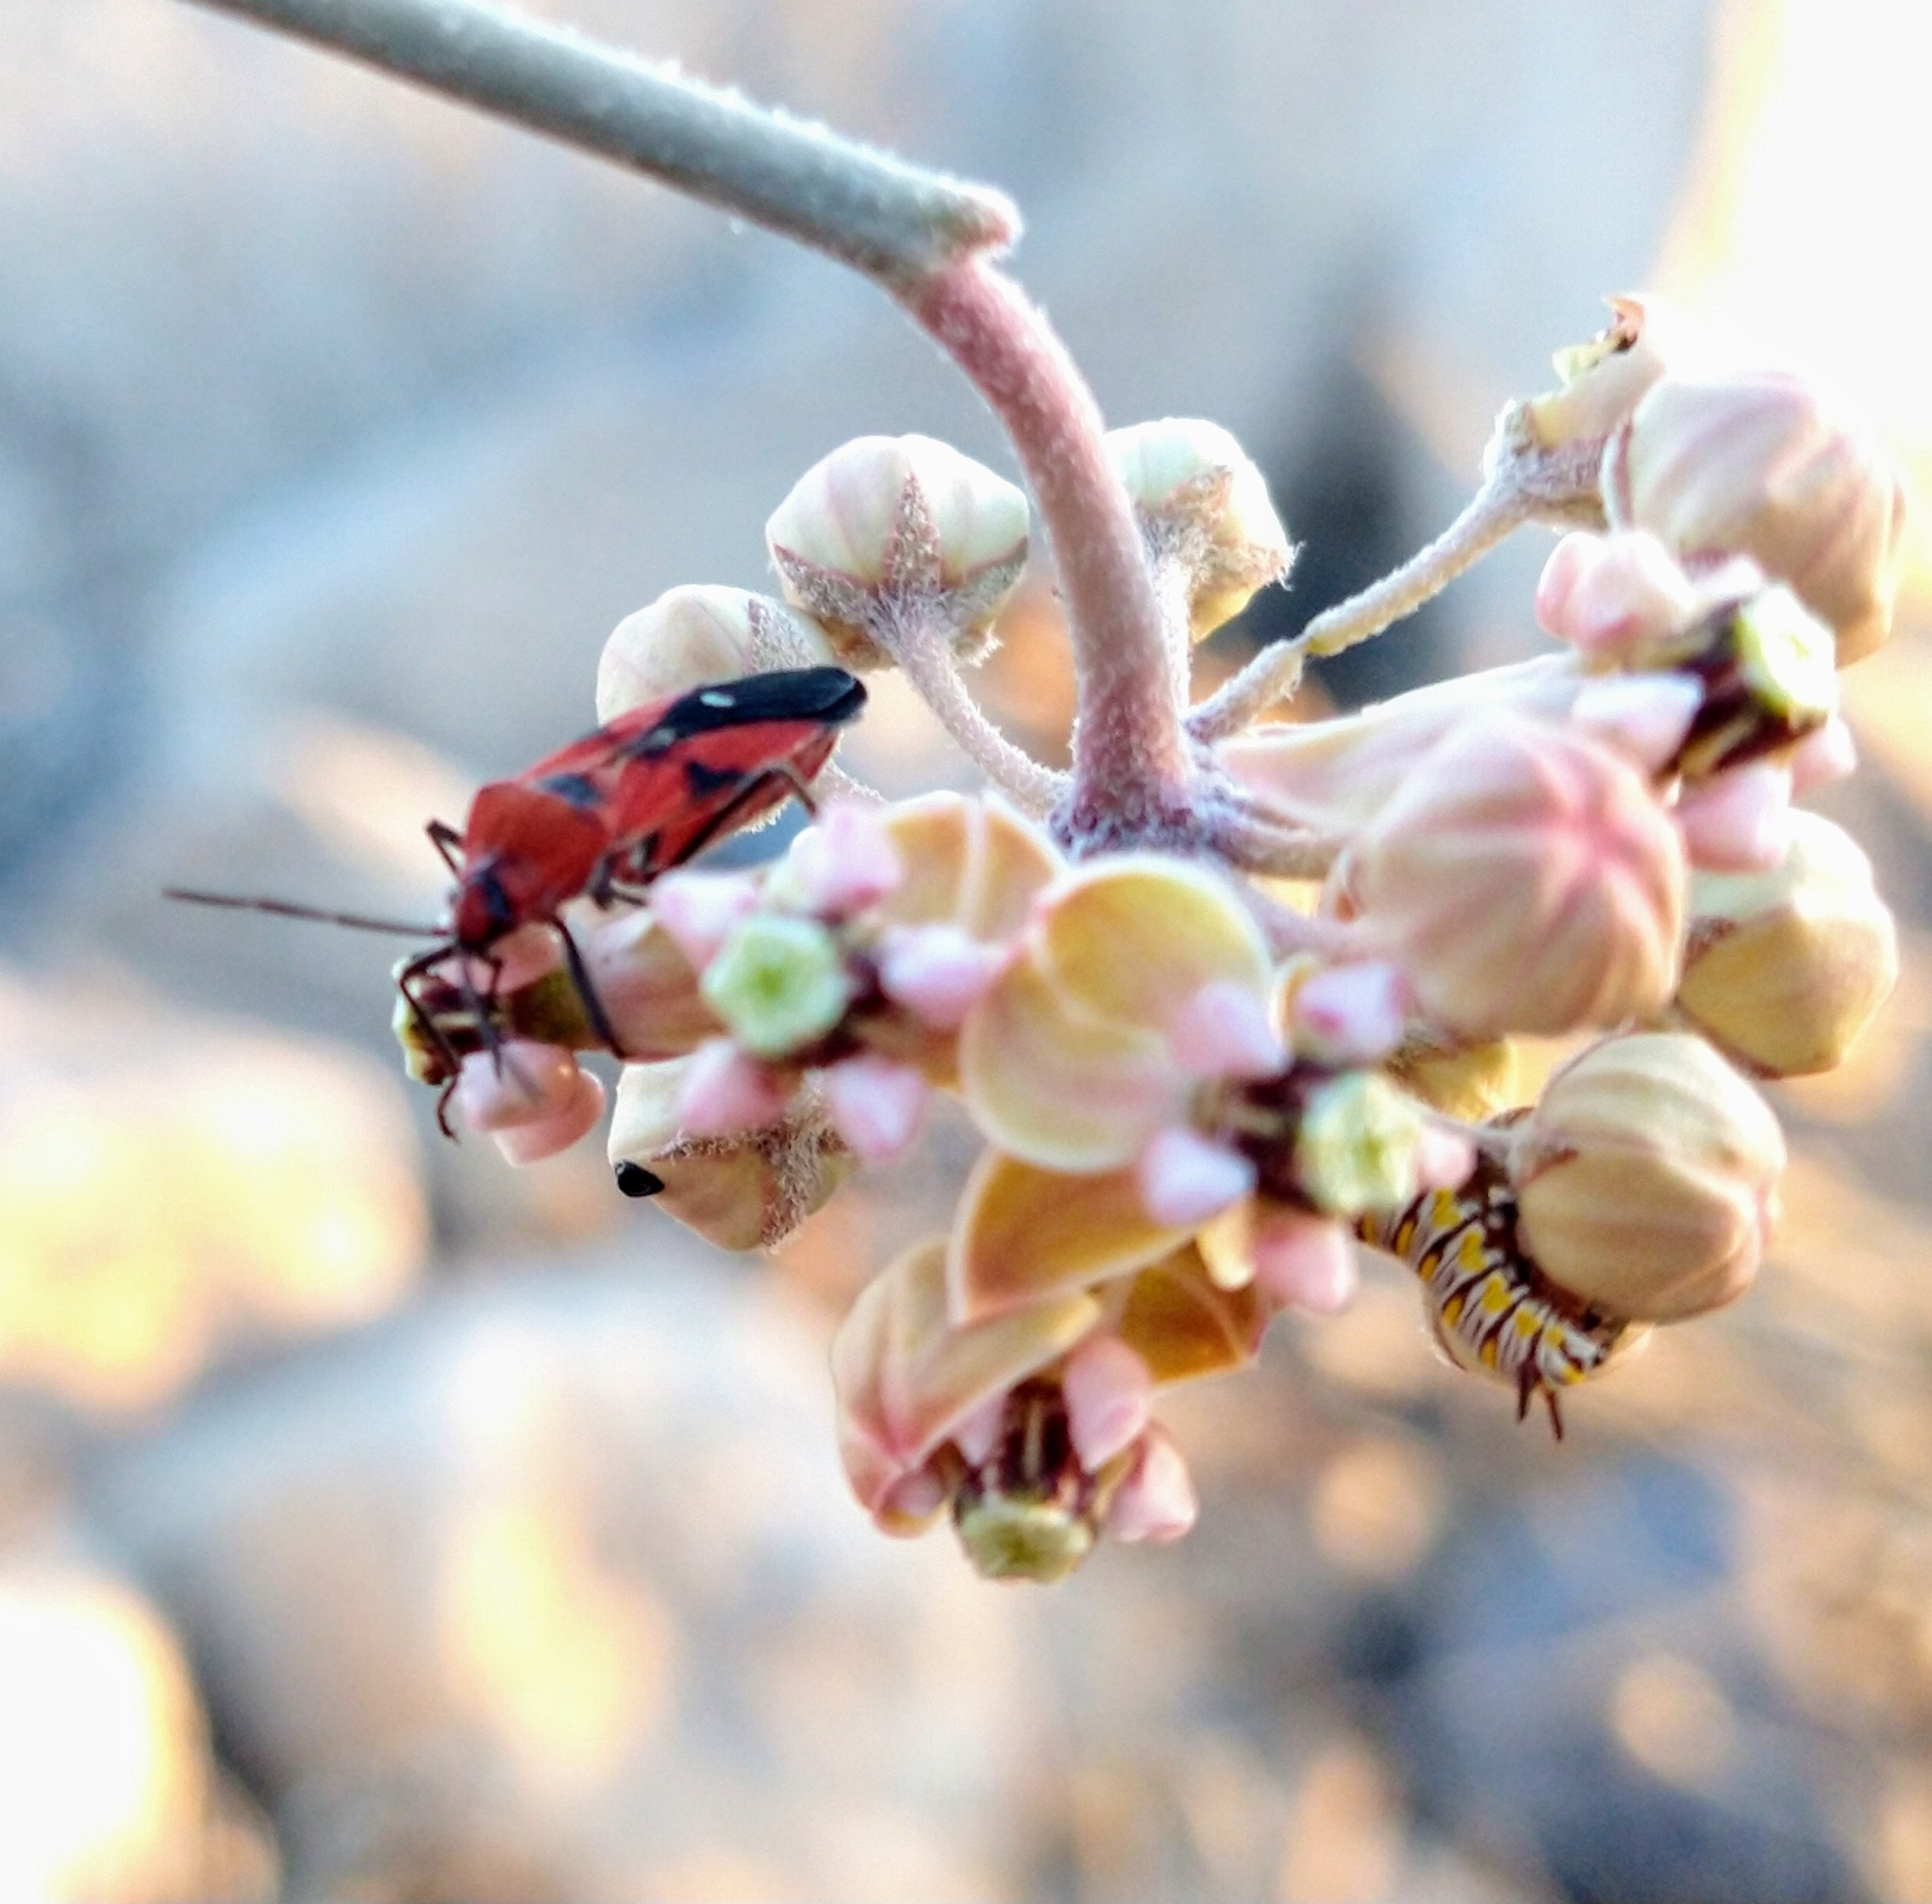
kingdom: Plantae
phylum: Tracheophyta
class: Magnoliopsida
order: Gentianales
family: Apocynaceae
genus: Asclepias
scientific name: Asclepias albicans
